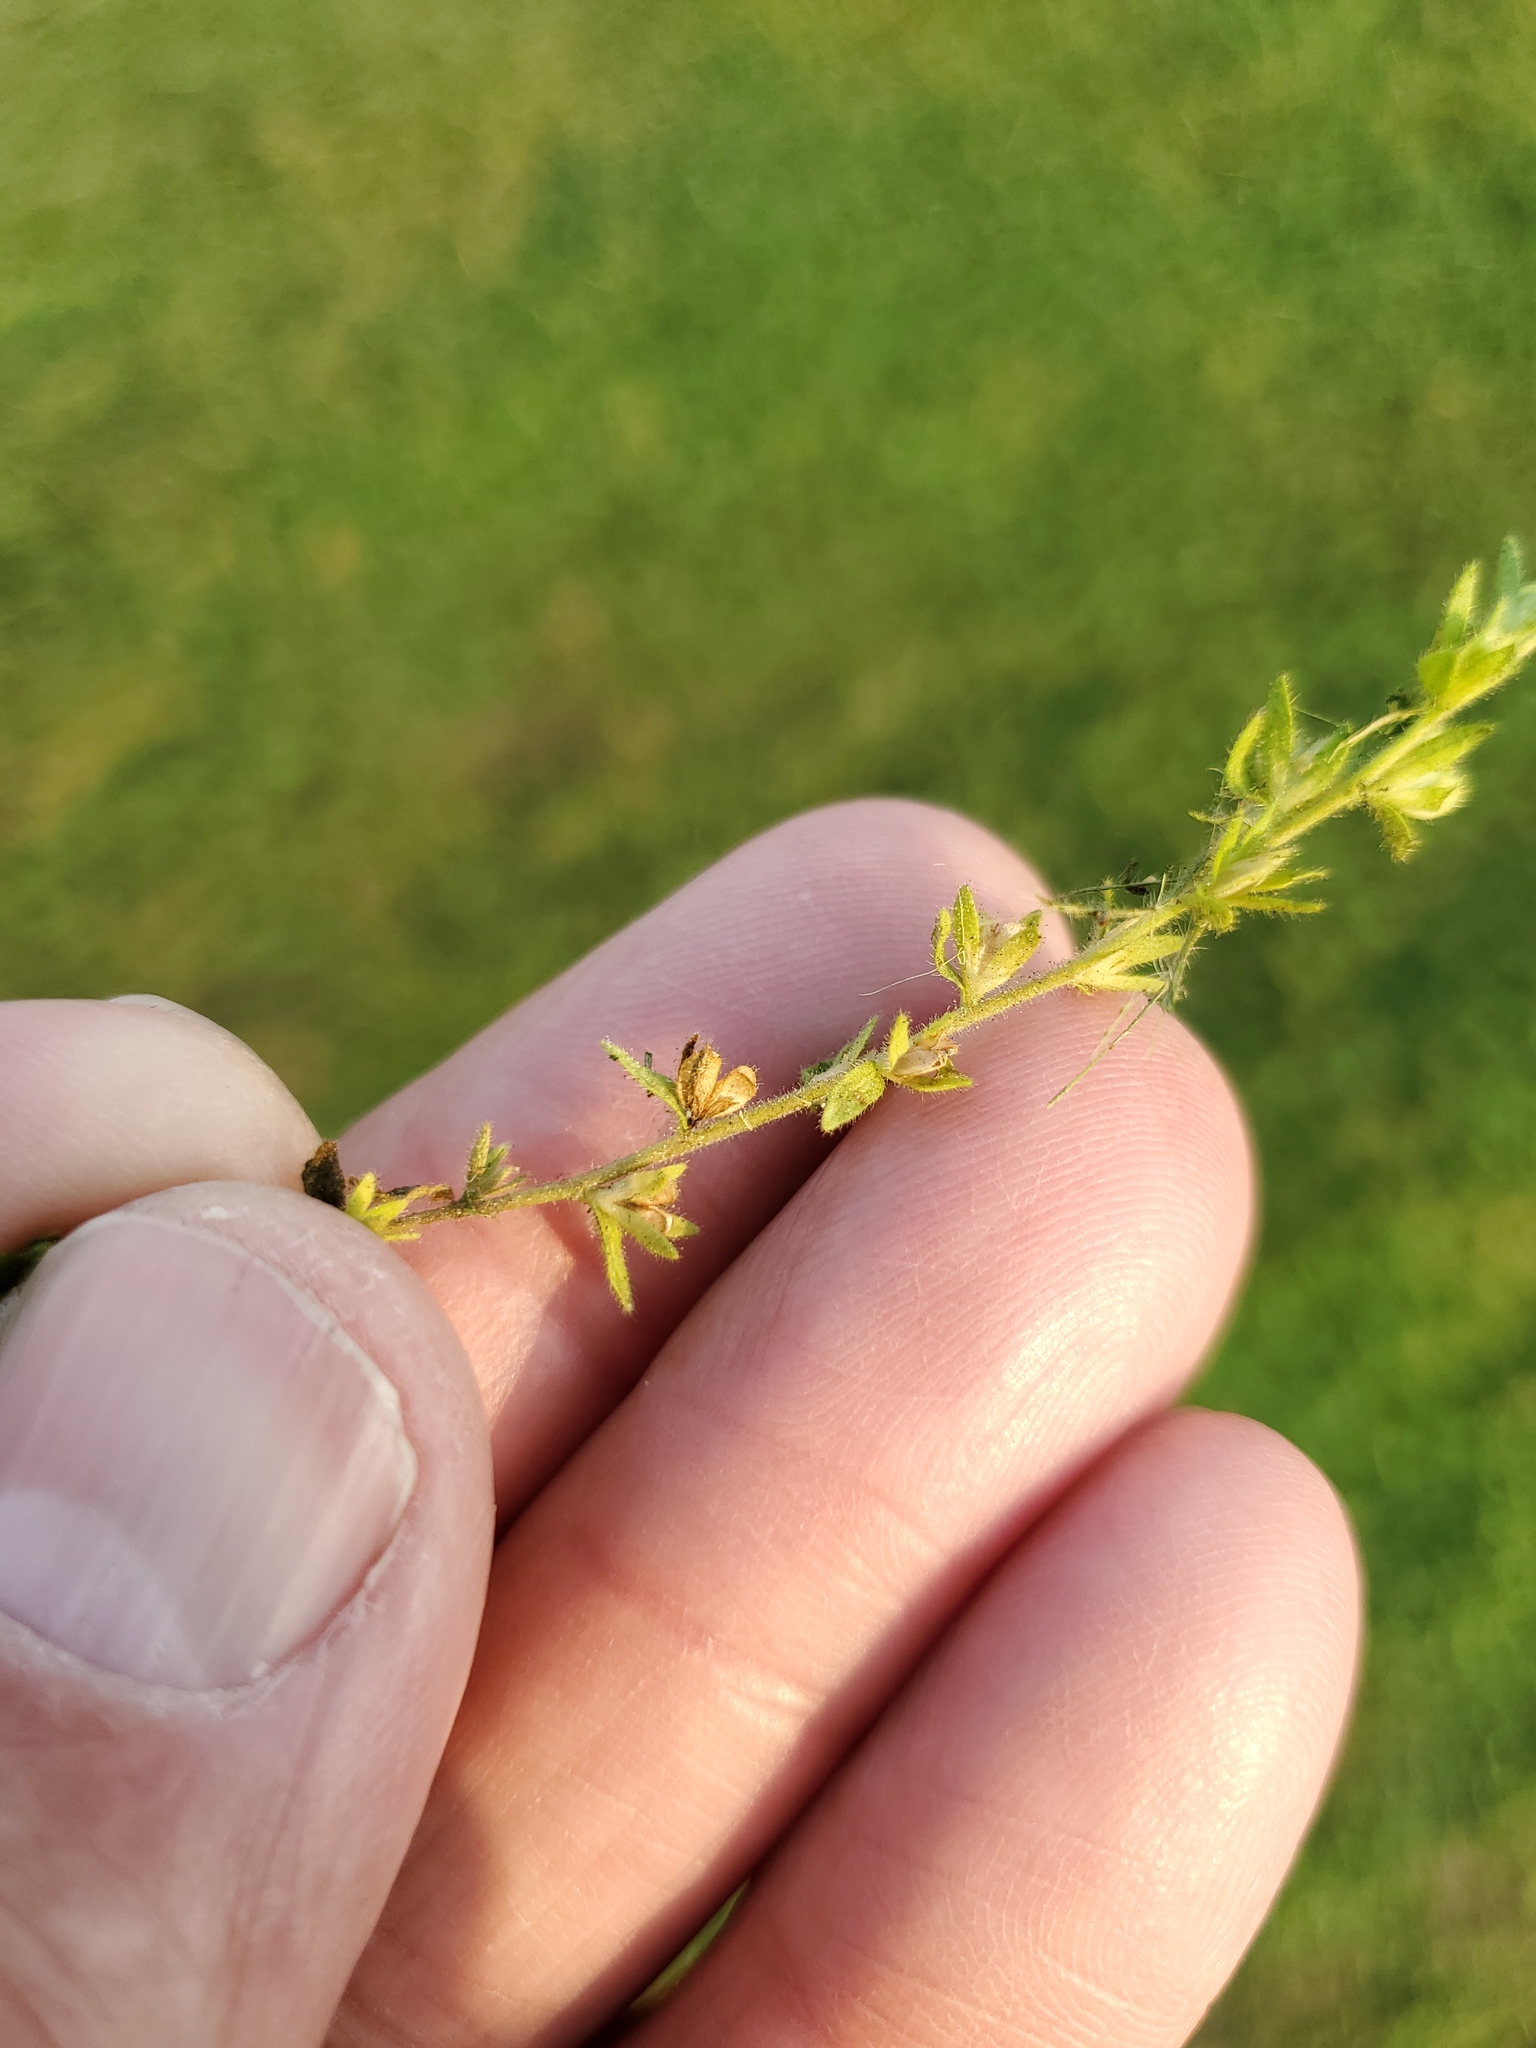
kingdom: Plantae
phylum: Tracheophyta
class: Magnoliopsida
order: Lamiales
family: Plantaginaceae
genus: Veronica
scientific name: Veronica arvensis
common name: Corn speedwell
